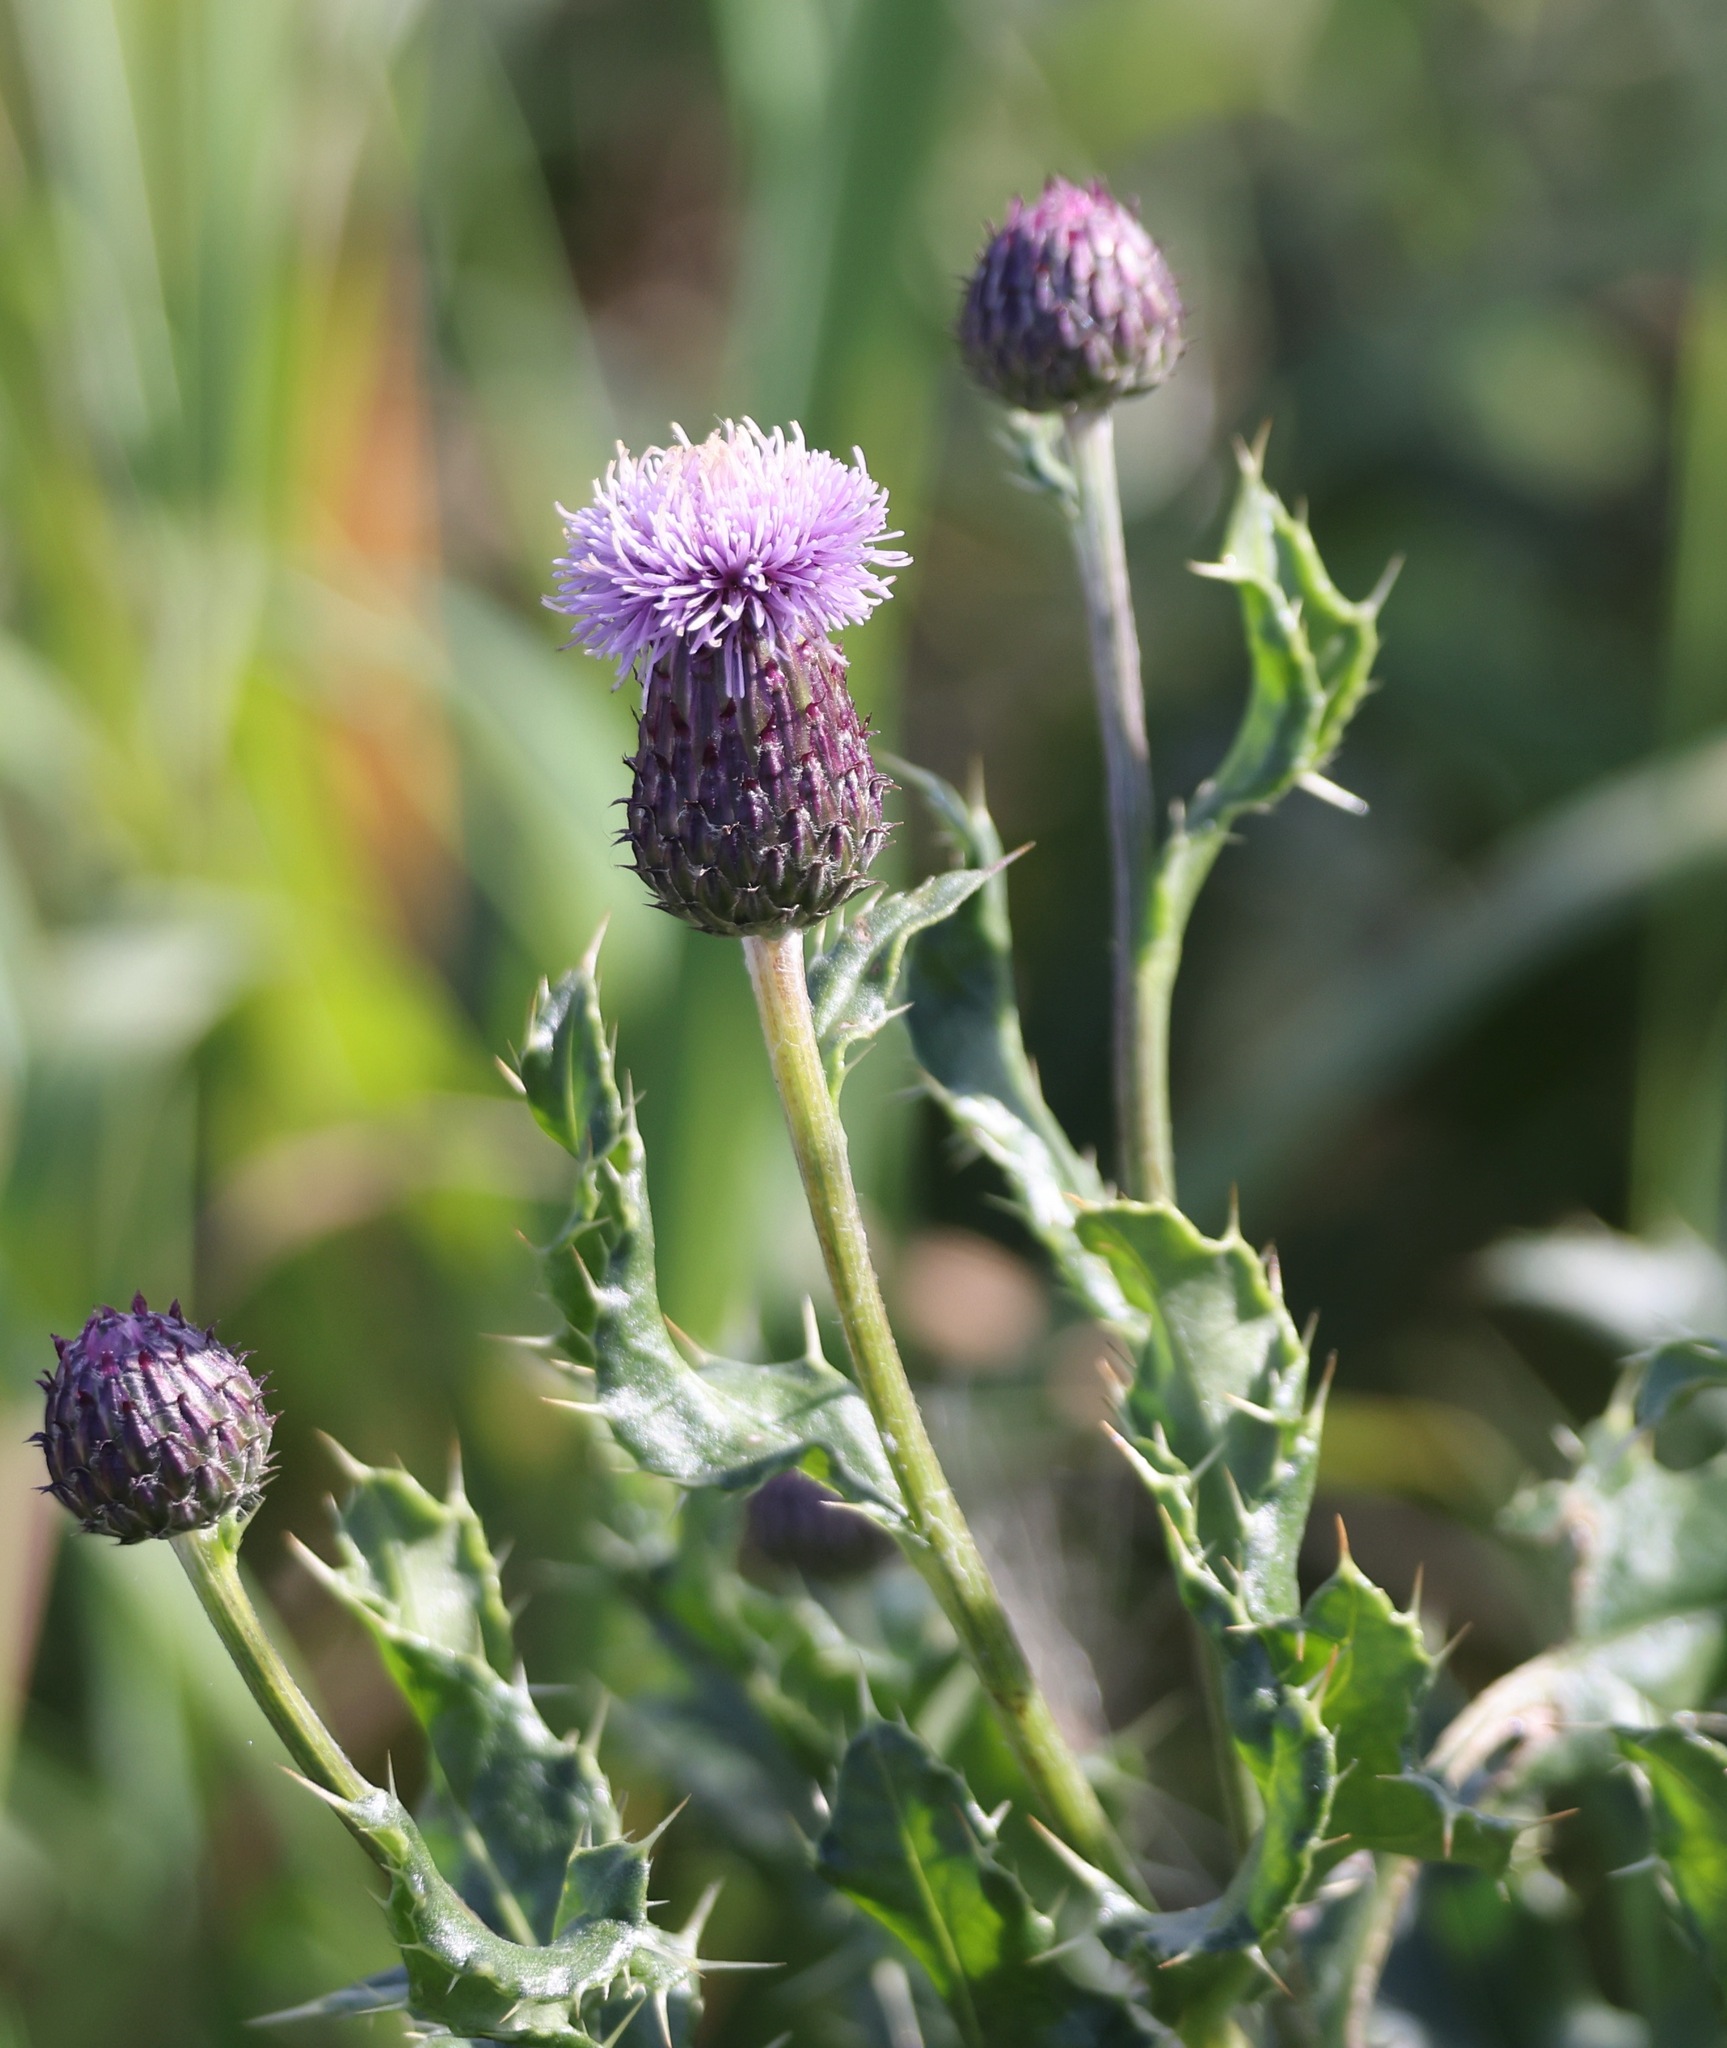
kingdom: Plantae
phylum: Tracheophyta
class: Magnoliopsida
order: Asterales
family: Asteraceae
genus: Cirsium
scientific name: Cirsium arvense
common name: Creeping thistle
